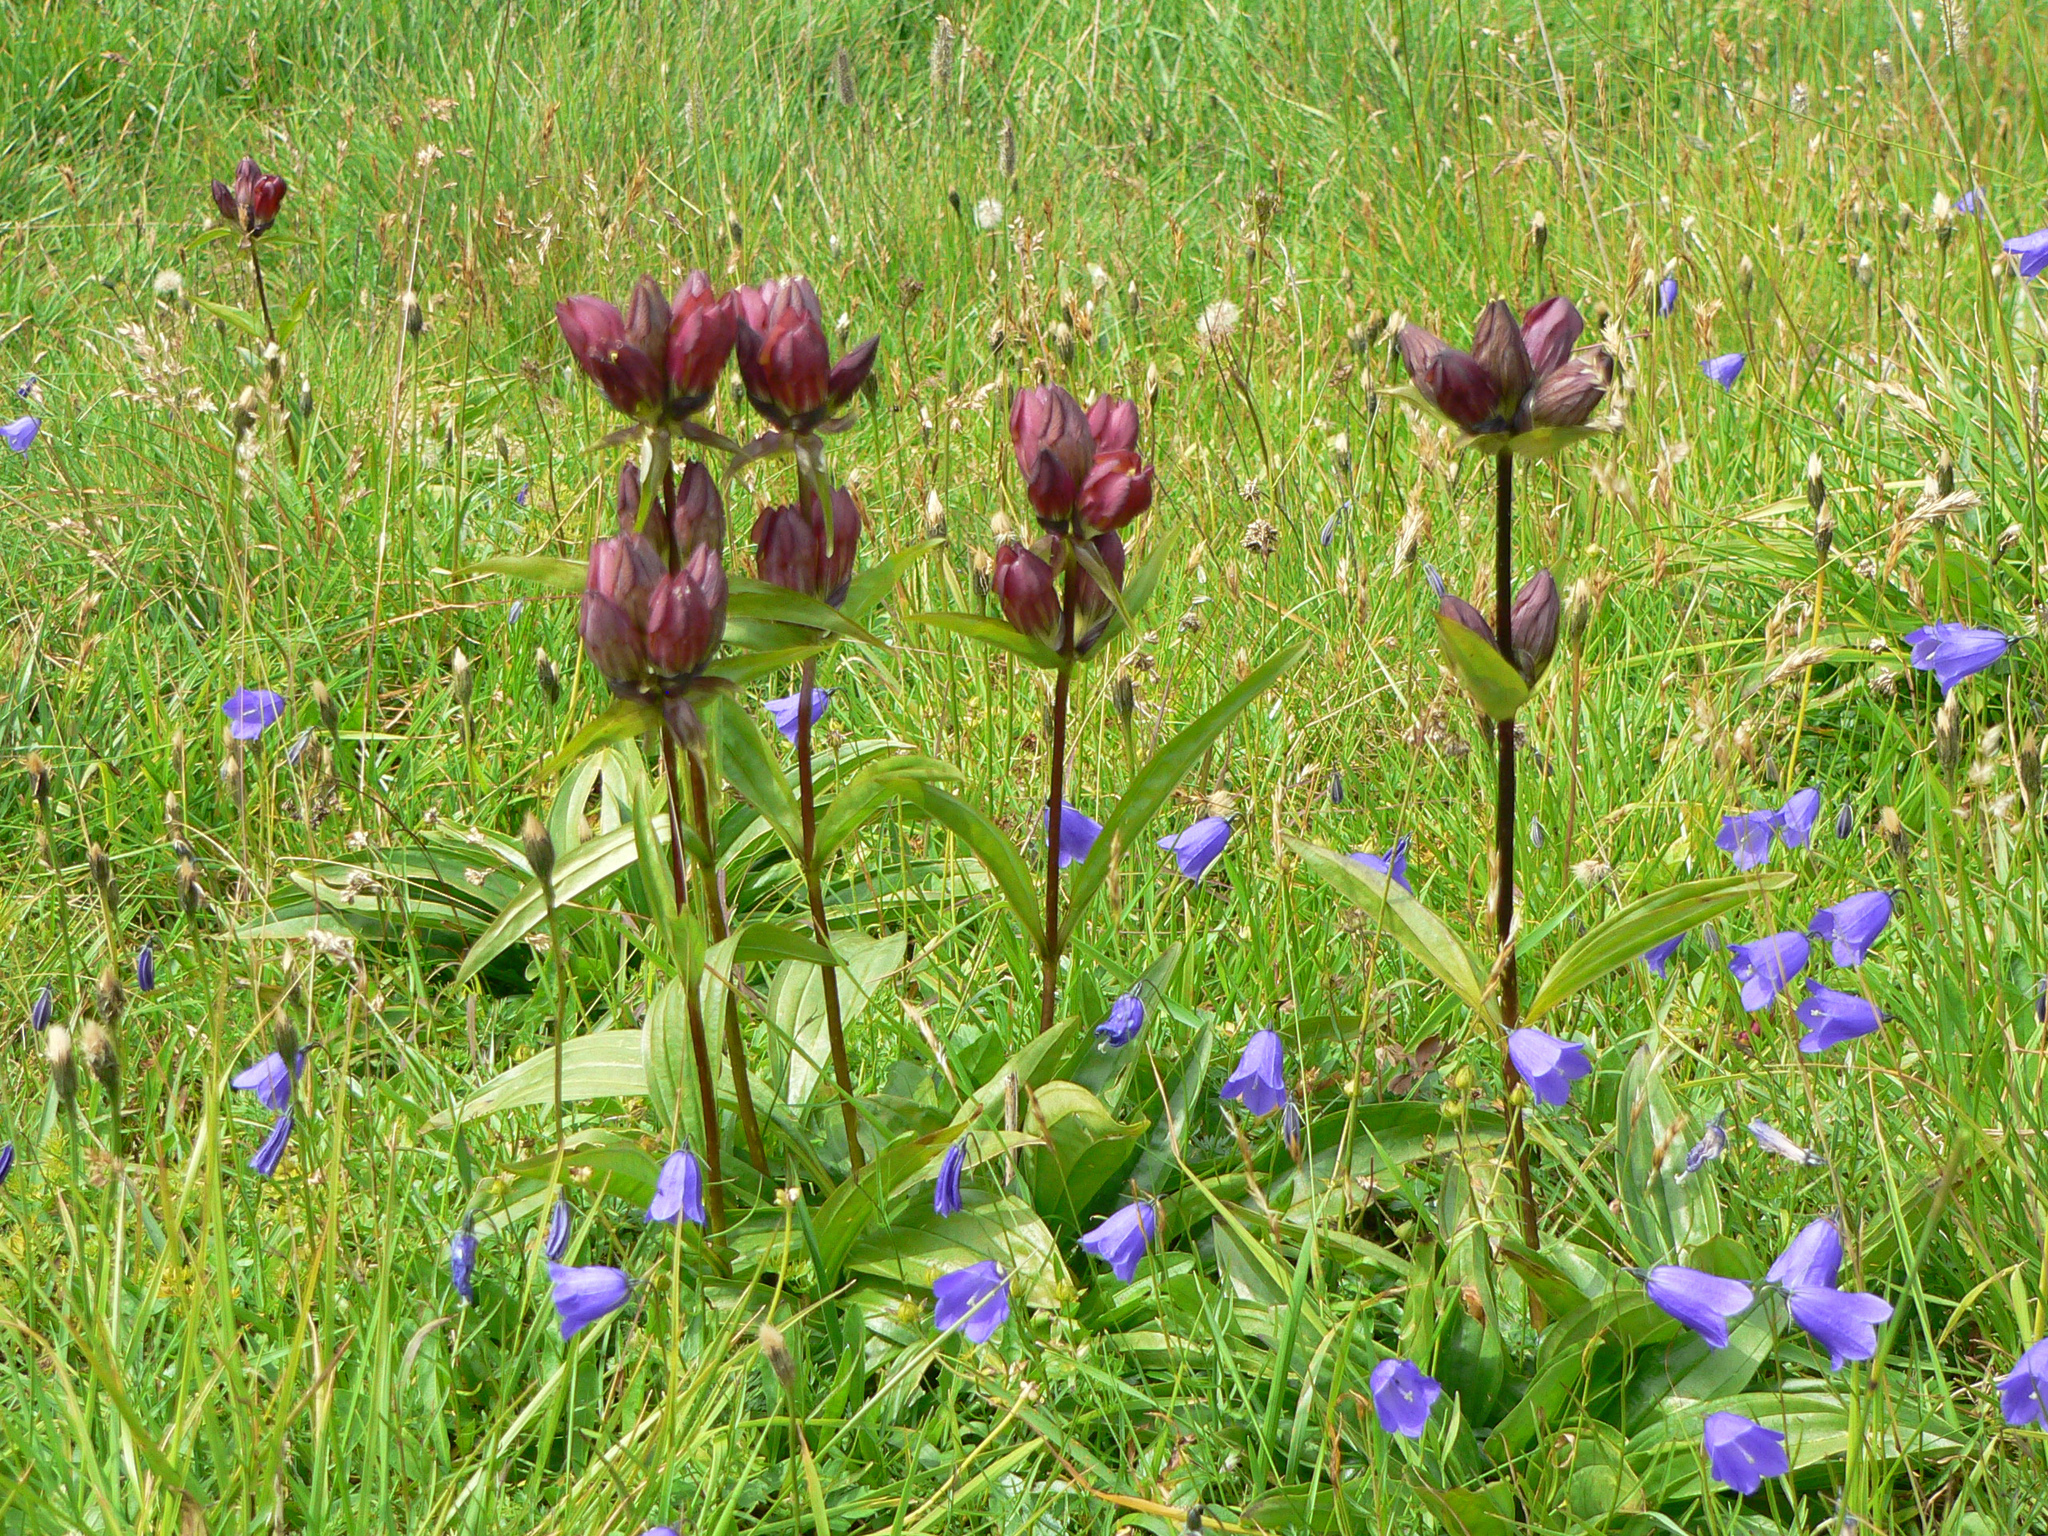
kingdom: Plantae
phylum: Tracheophyta
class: Magnoliopsida
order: Gentianales
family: Gentianaceae
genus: Gentiana
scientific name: Gentiana purpurea
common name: Purple gentian
